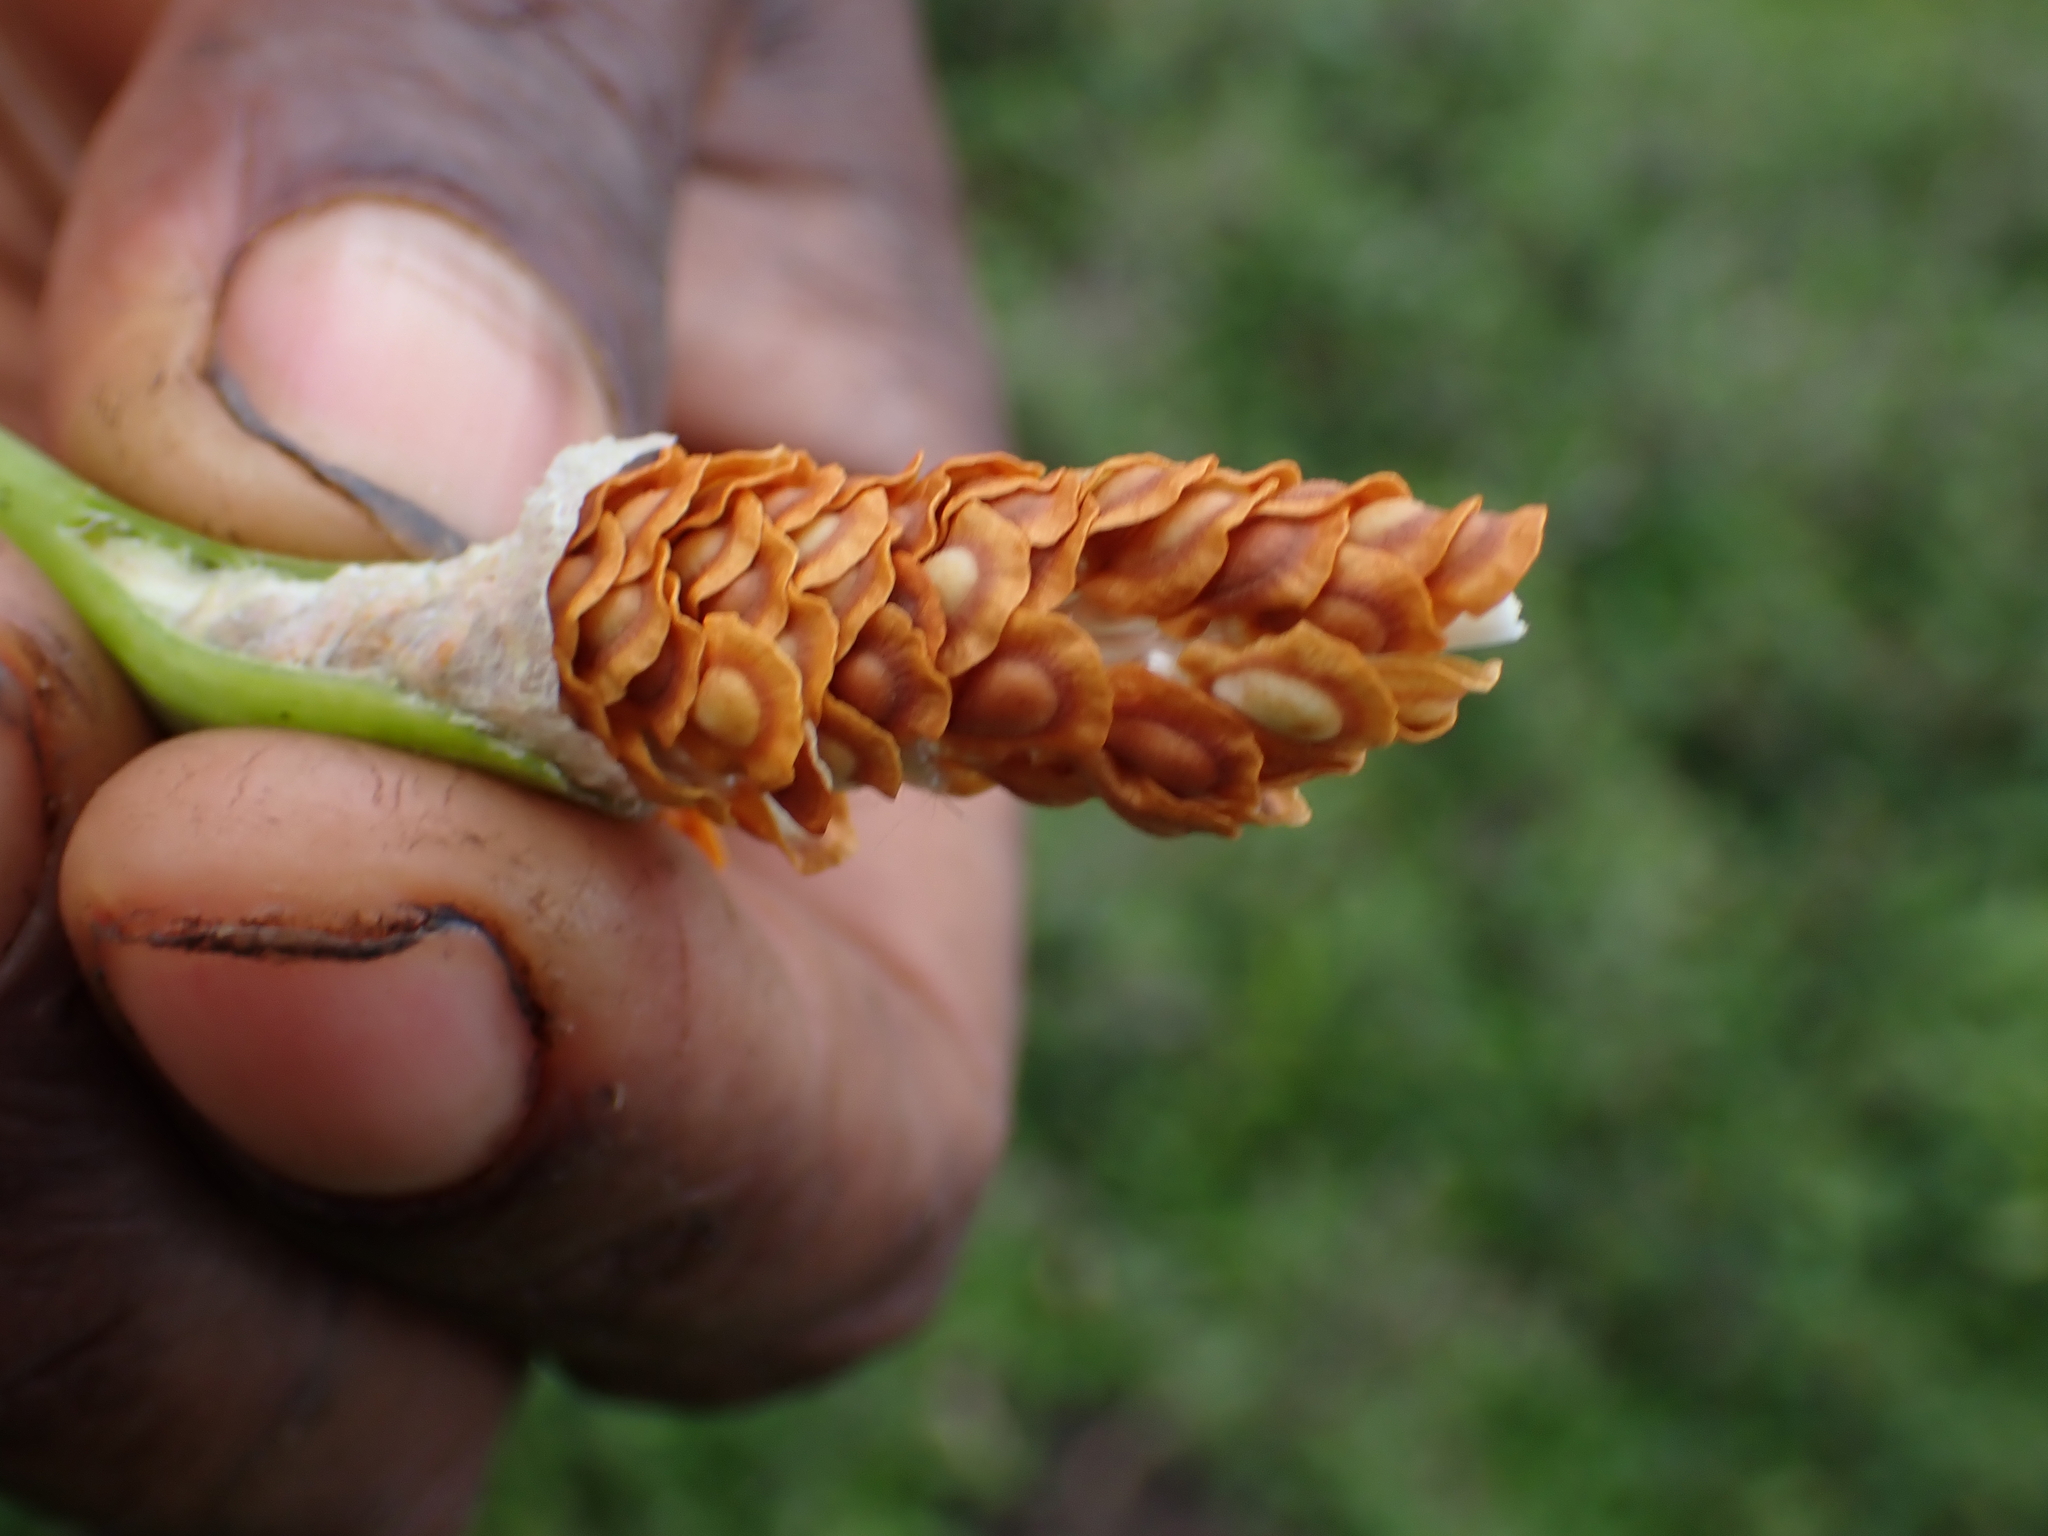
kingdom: Plantae
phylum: Tracheophyta
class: Magnoliopsida
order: Gentianales
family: Apocynaceae
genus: Asclepias
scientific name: Asclepias curassavica
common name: Bloodflower
